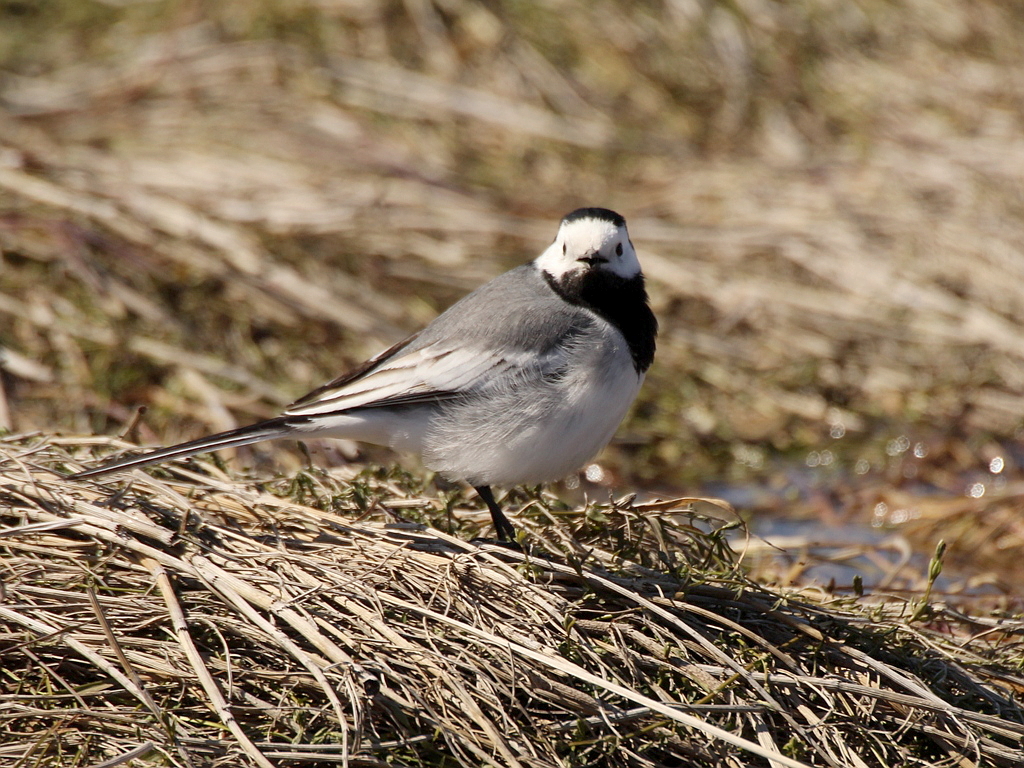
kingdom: Animalia
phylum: Chordata
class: Aves
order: Passeriformes
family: Motacillidae
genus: Motacilla
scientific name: Motacilla alba
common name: White wagtail
